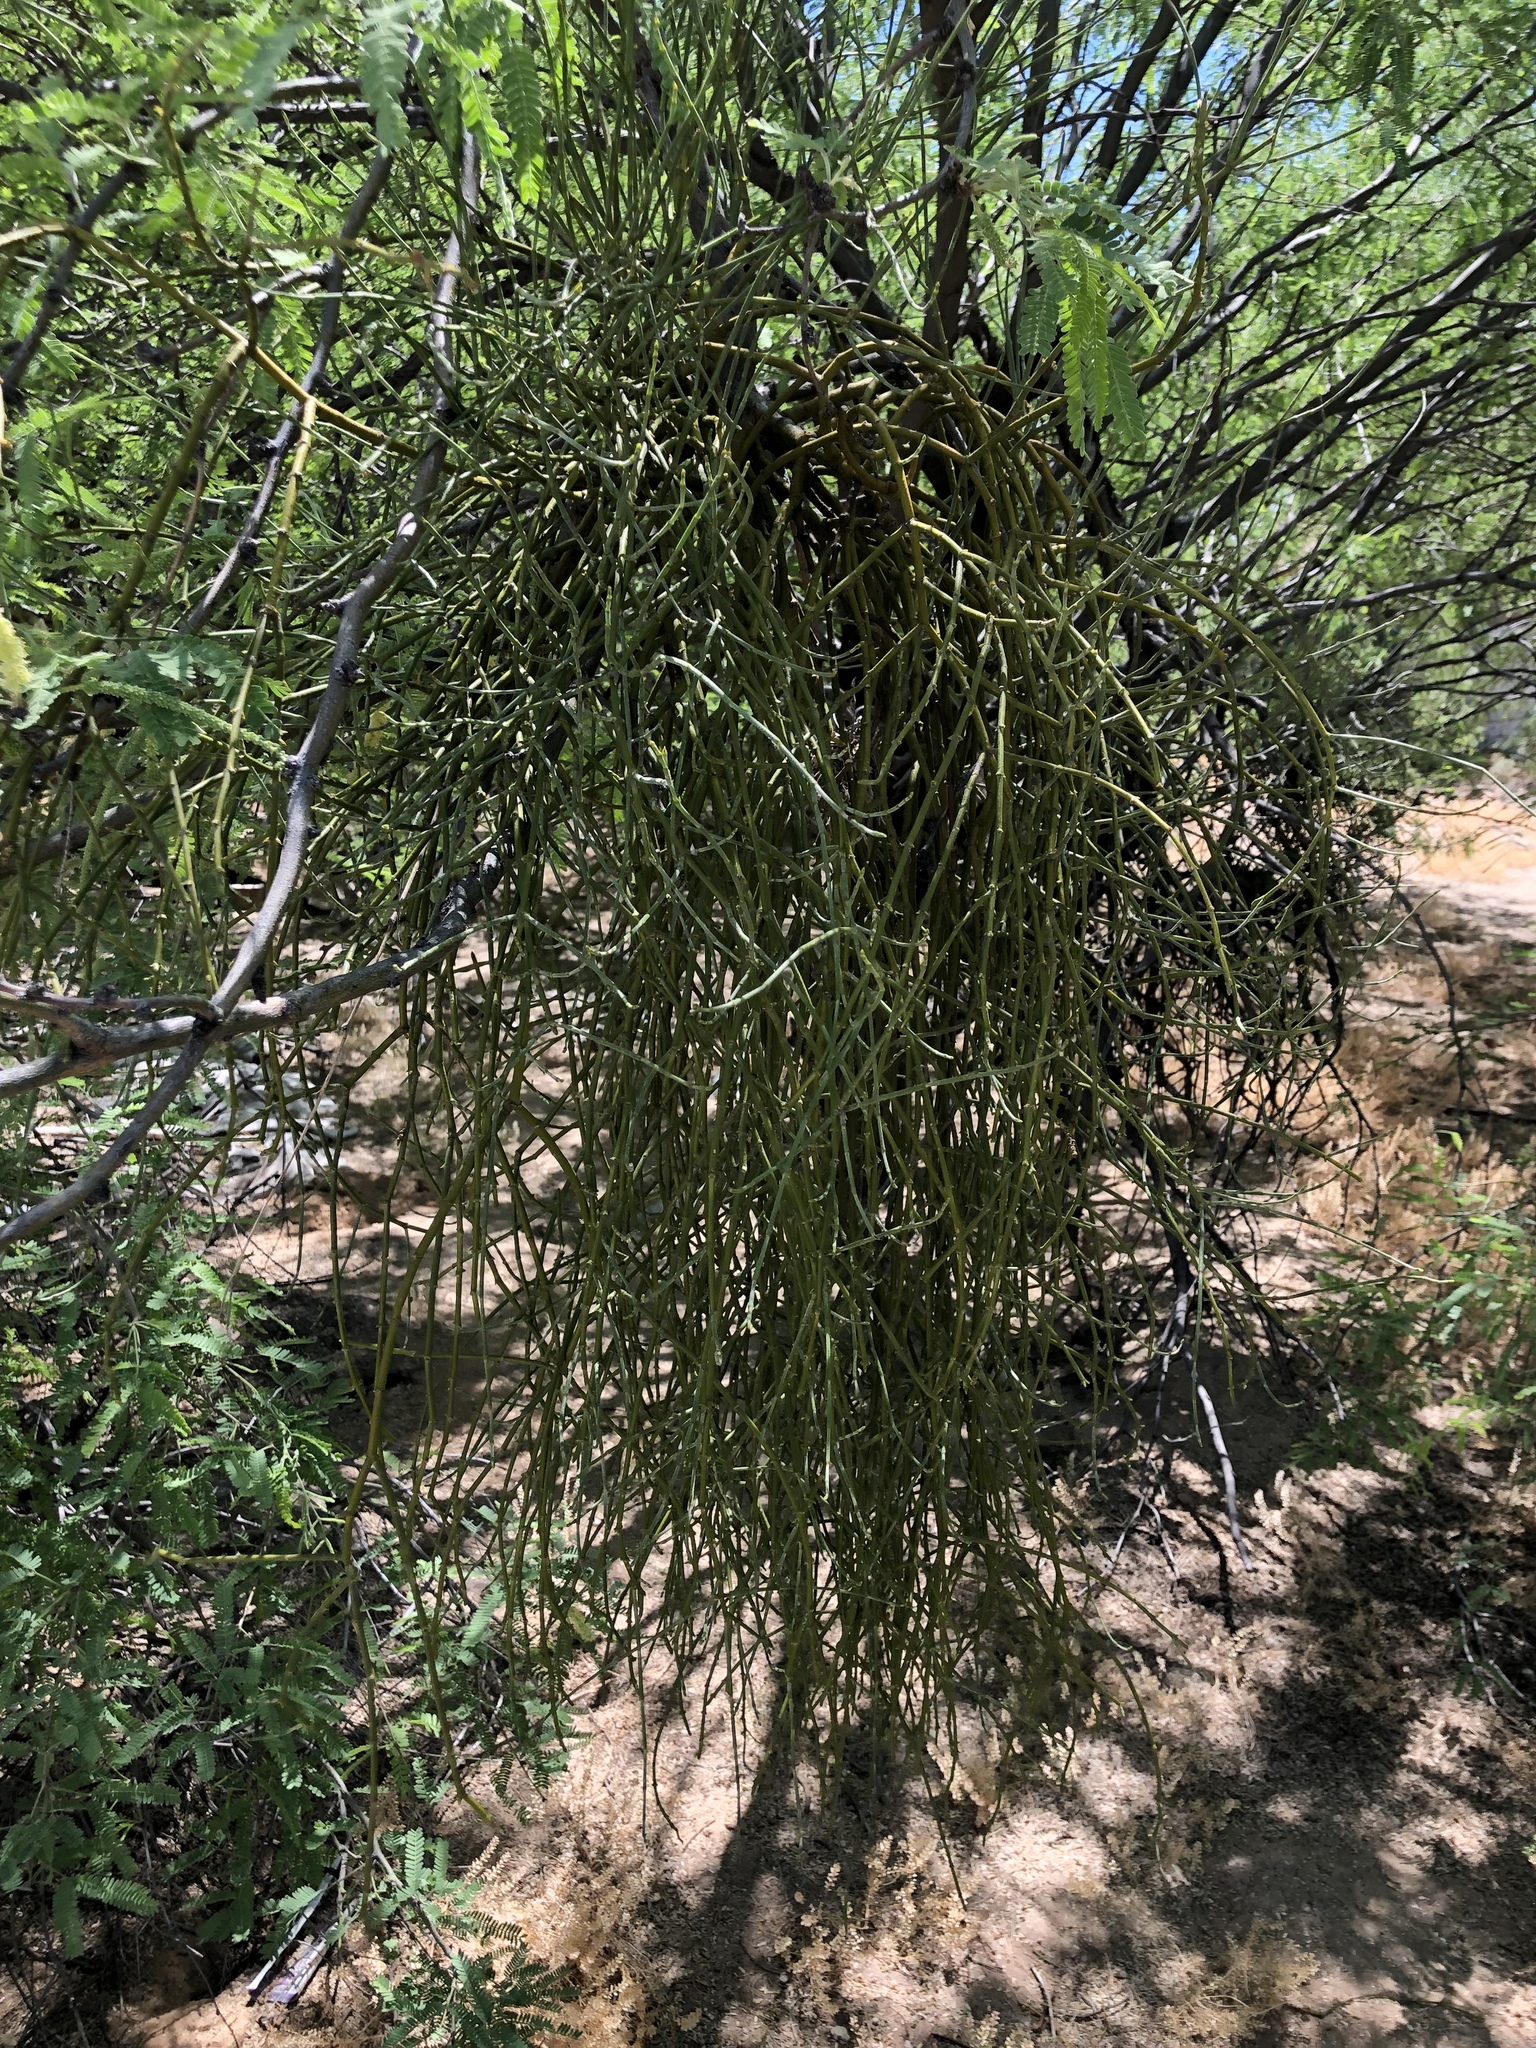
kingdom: Plantae
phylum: Tracheophyta
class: Magnoliopsida
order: Santalales
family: Viscaceae
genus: Phoradendron
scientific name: Phoradendron californicum
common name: Acacia mistletoe
